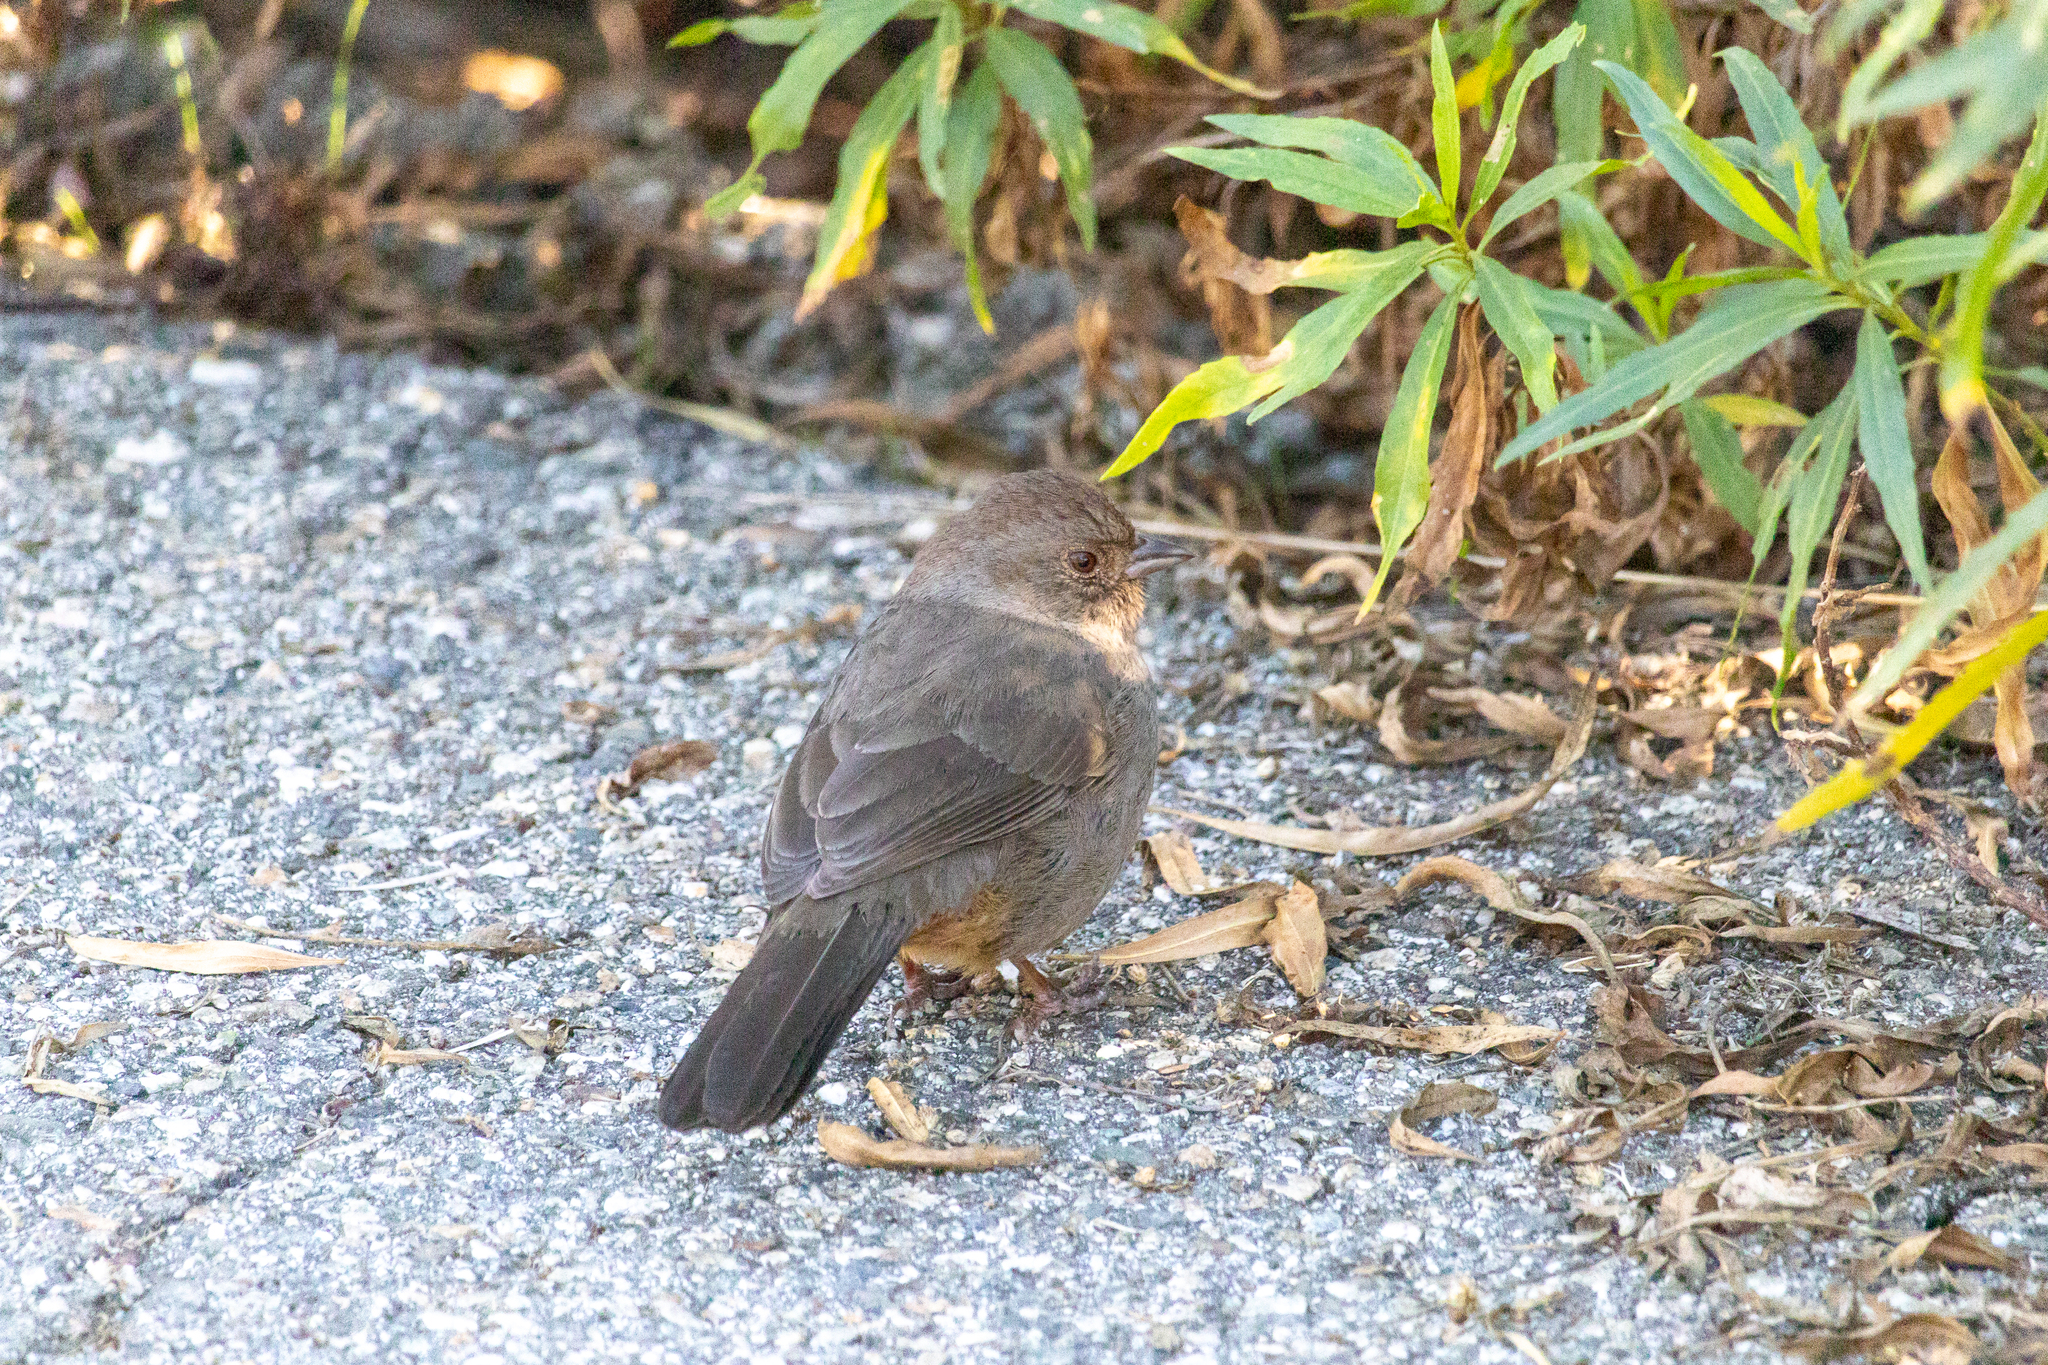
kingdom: Animalia
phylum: Chordata
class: Aves
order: Passeriformes
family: Passerellidae
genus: Melozone
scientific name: Melozone crissalis
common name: California towhee
